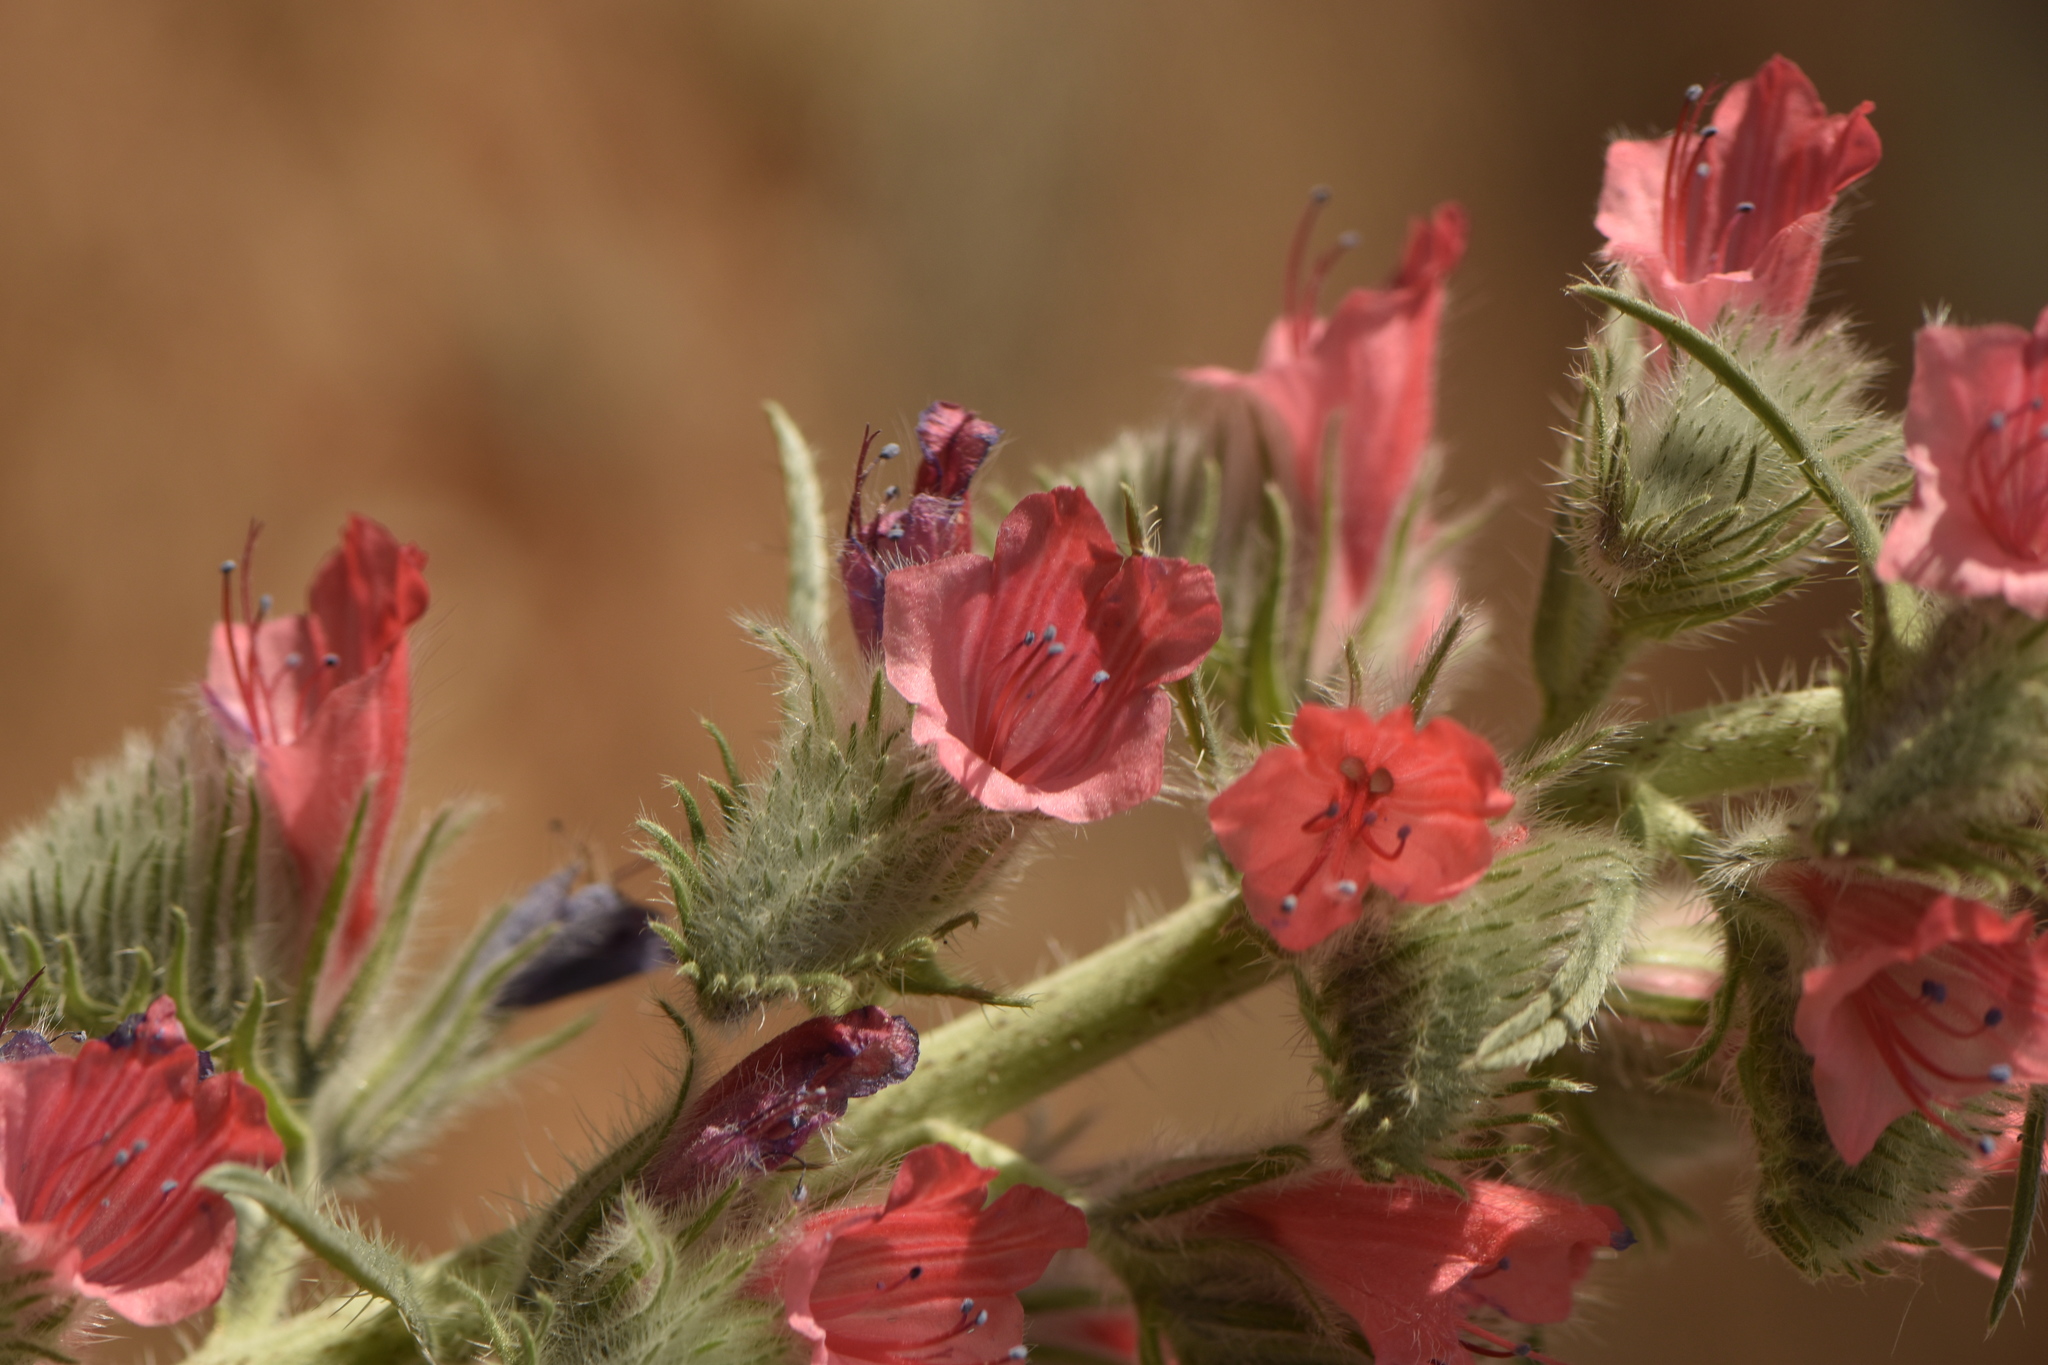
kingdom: Plantae
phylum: Tracheophyta
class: Magnoliopsida
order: Boraginales
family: Boraginaceae
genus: Echium
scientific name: Echium albicans
